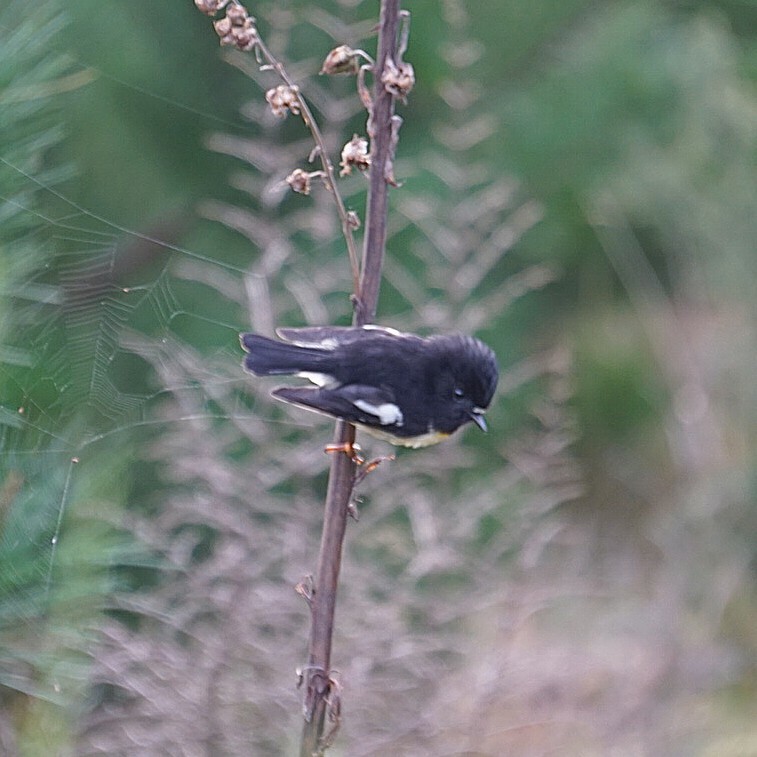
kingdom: Animalia
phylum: Chordata
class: Aves
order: Passeriformes
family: Petroicidae
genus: Petroica
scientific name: Petroica macrocephala
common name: Tomtit
